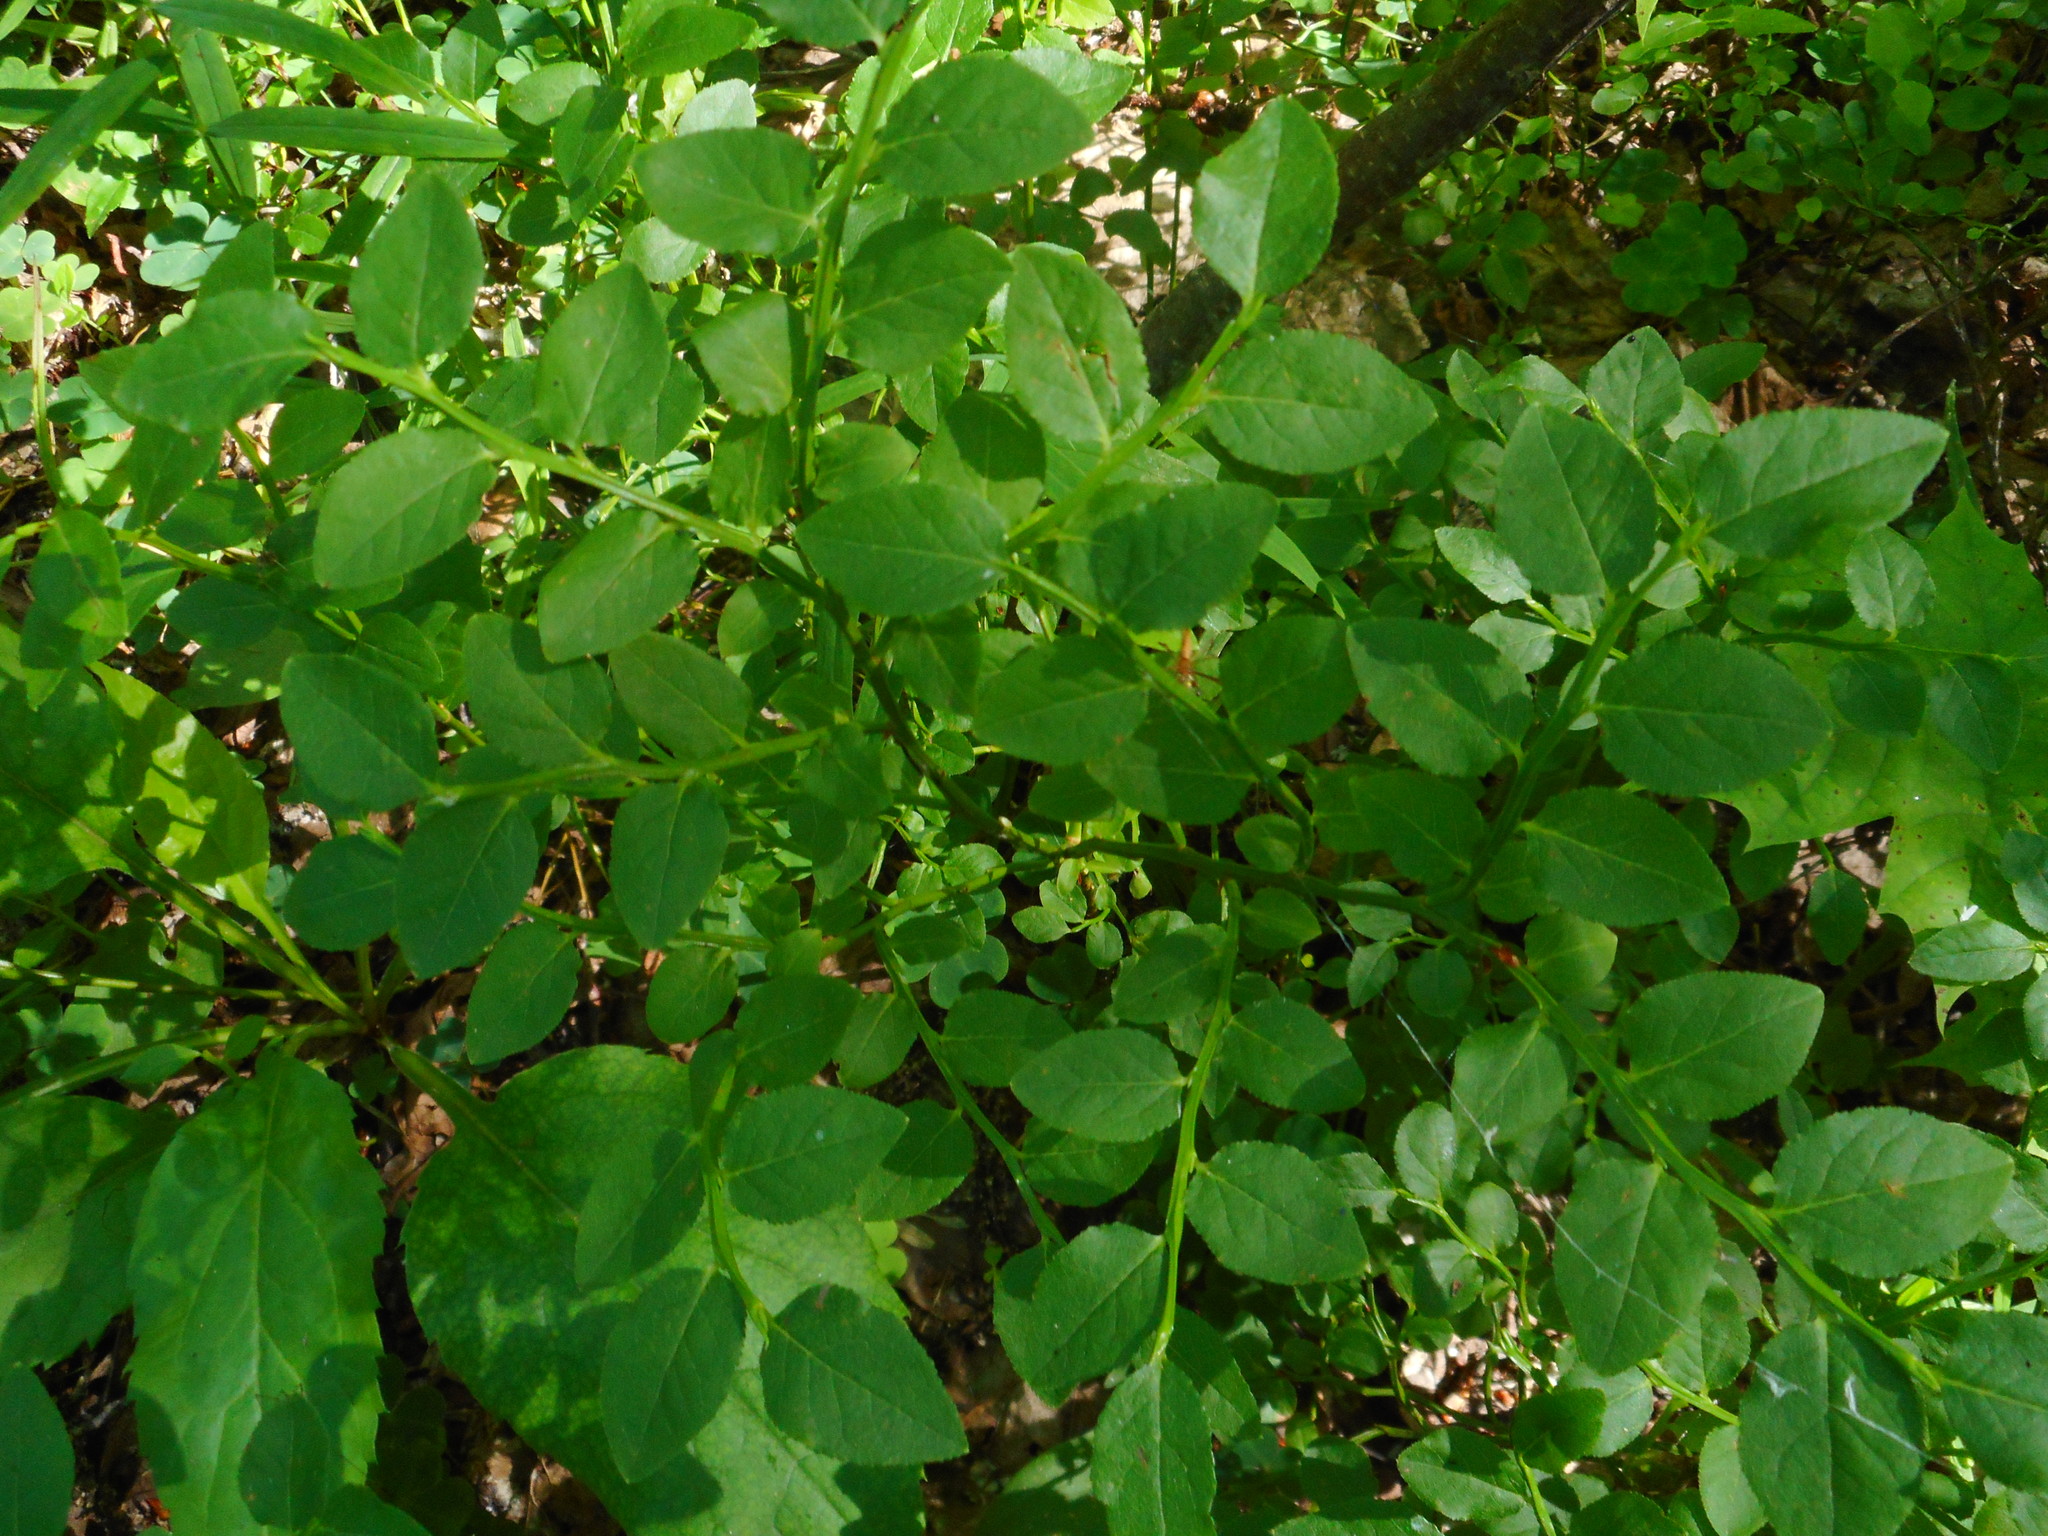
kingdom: Plantae
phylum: Tracheophyta
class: Magnoliopsida
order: Ericales
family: Ericaceae
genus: Vaccinium
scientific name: Vaccinium myrtillus
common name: Bilberry
